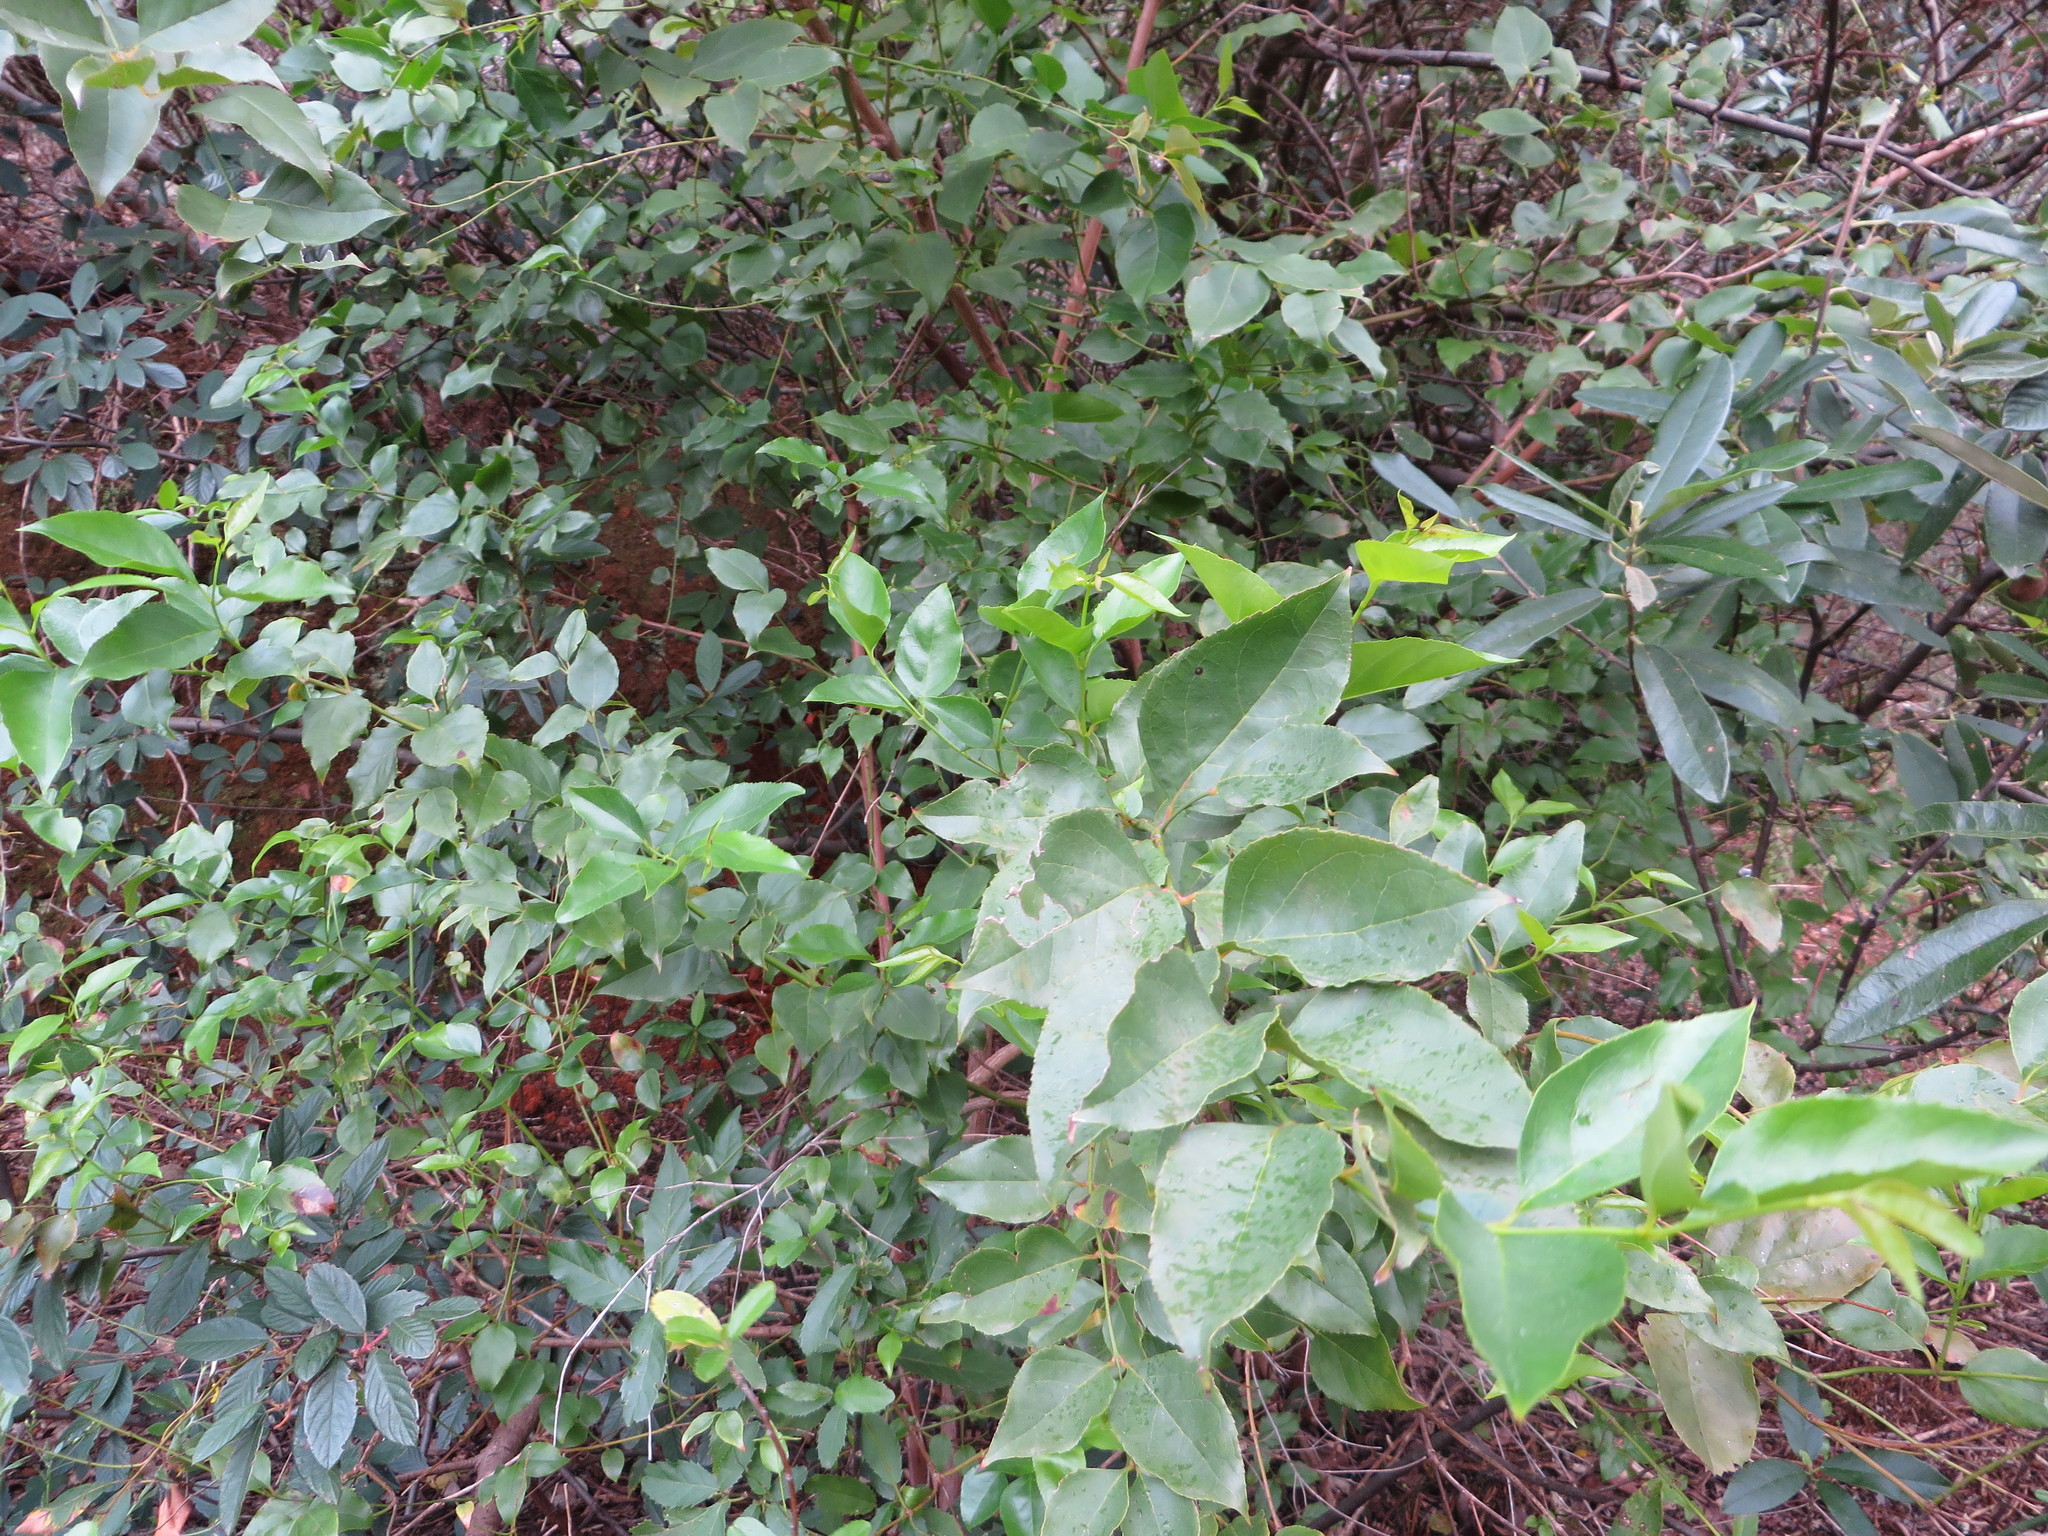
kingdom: Plantae
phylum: Tracheophyta
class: Magnoliopsida
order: Lamiales
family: Stilbaceae
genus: Halleria
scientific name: Halleria lucida
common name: Tree fuschia
